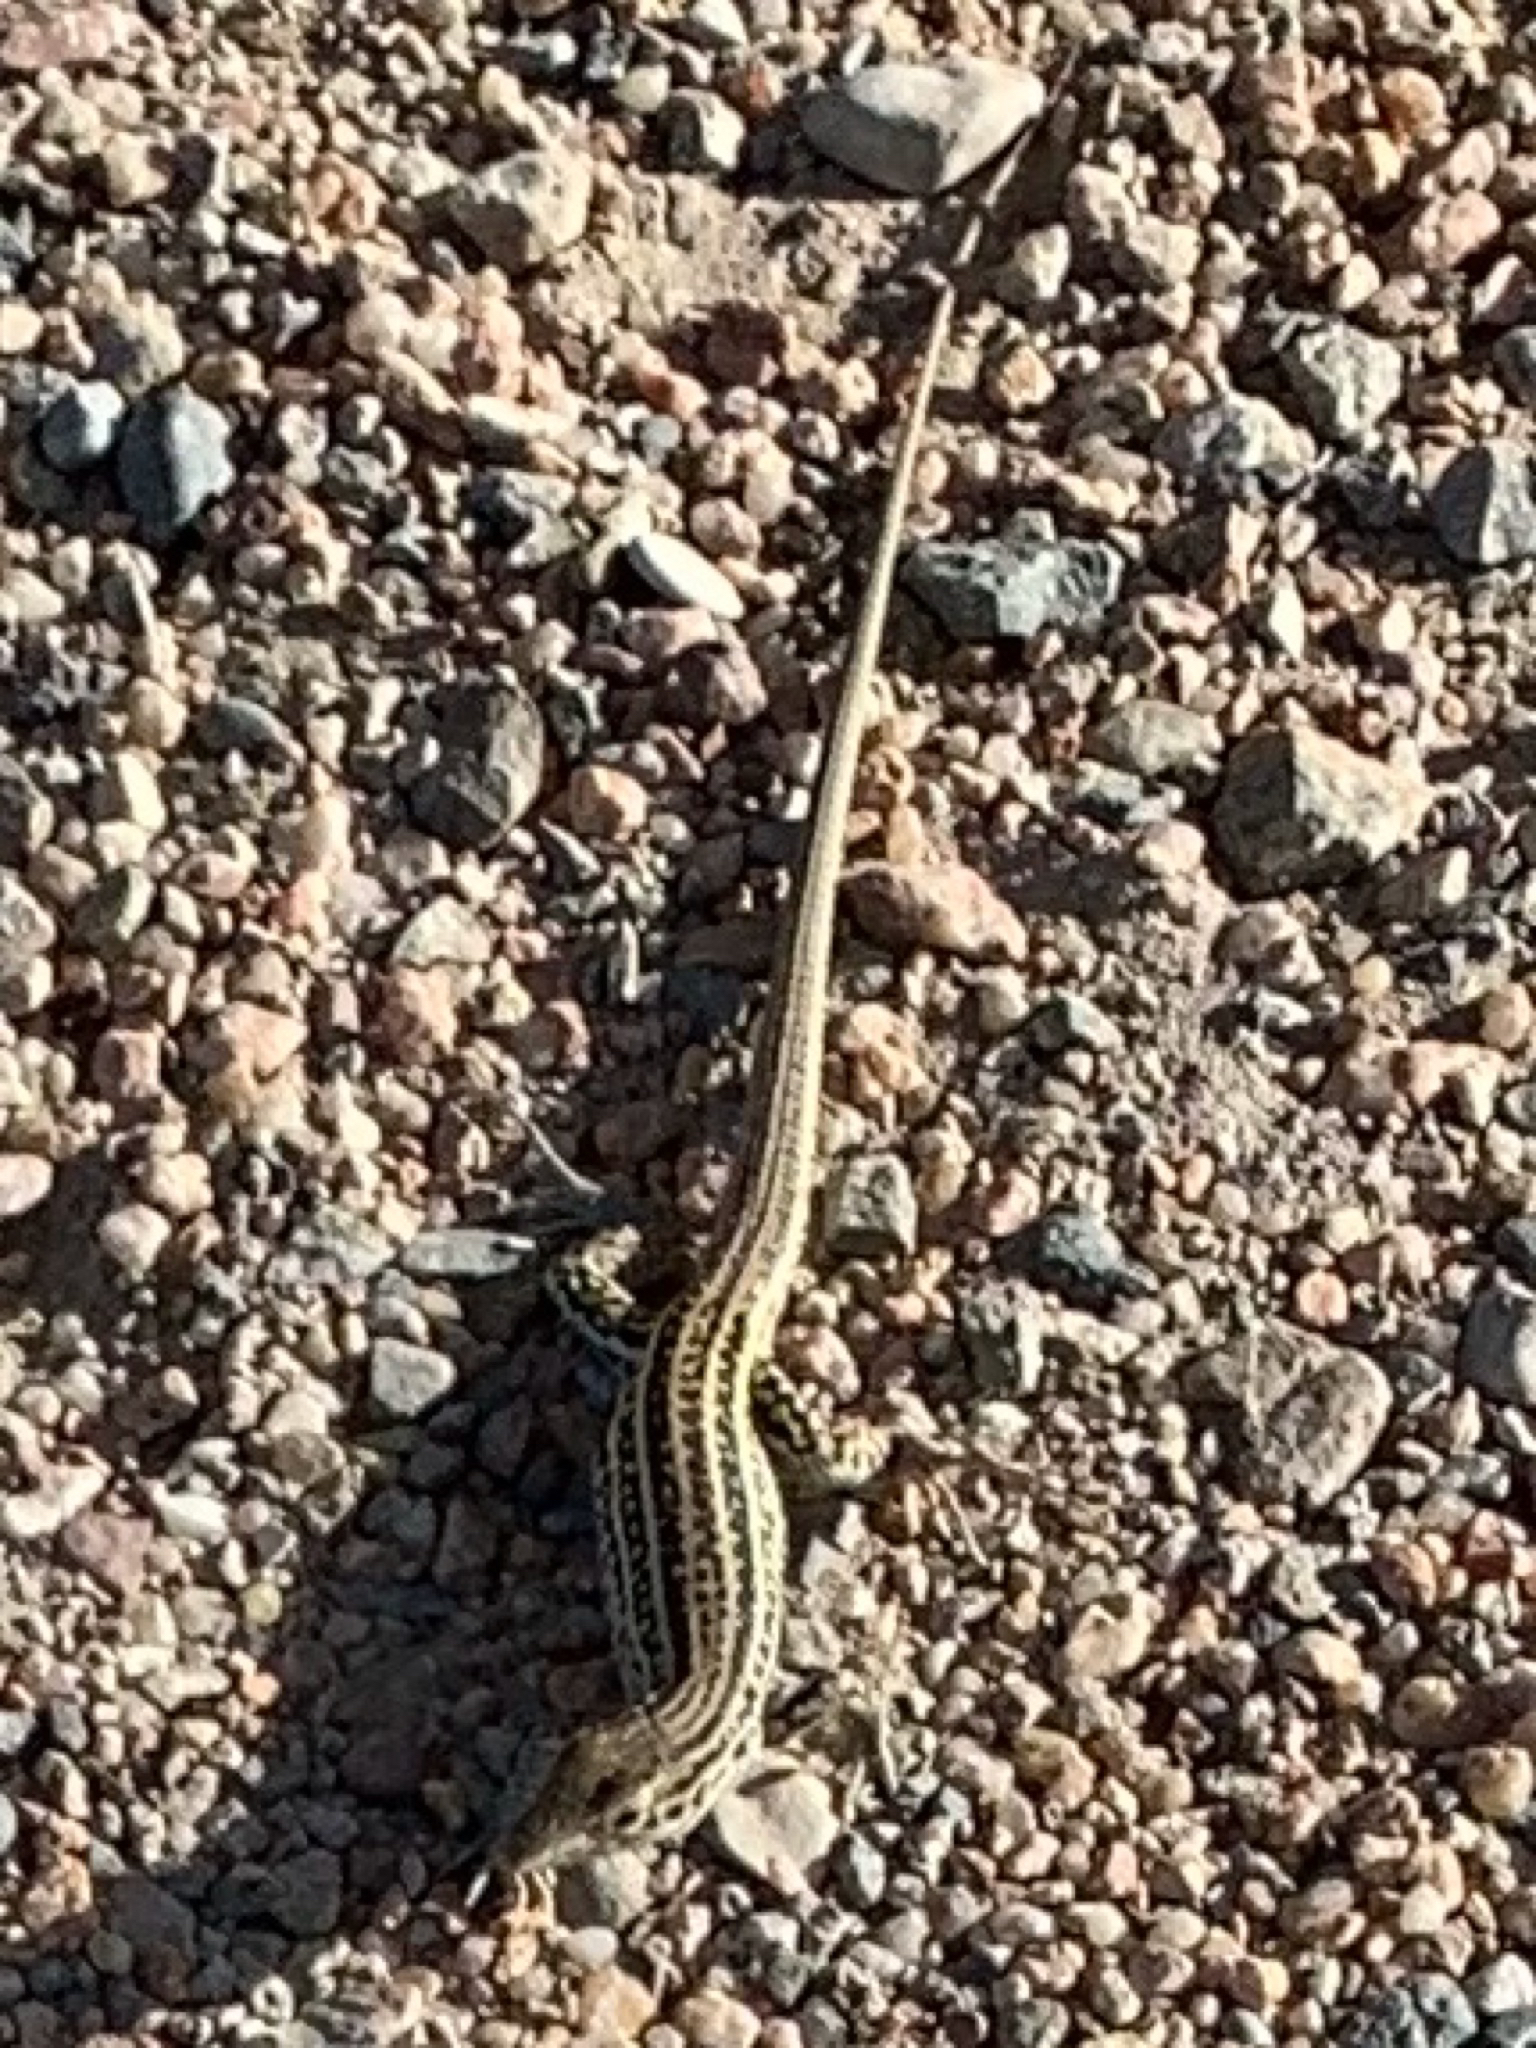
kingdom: Animalia
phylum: Chordata
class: Squamata
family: Teiidae
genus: Aspidoscelis
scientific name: Aspidoscelis neotesselatus
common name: Colorado checkered whiptail
